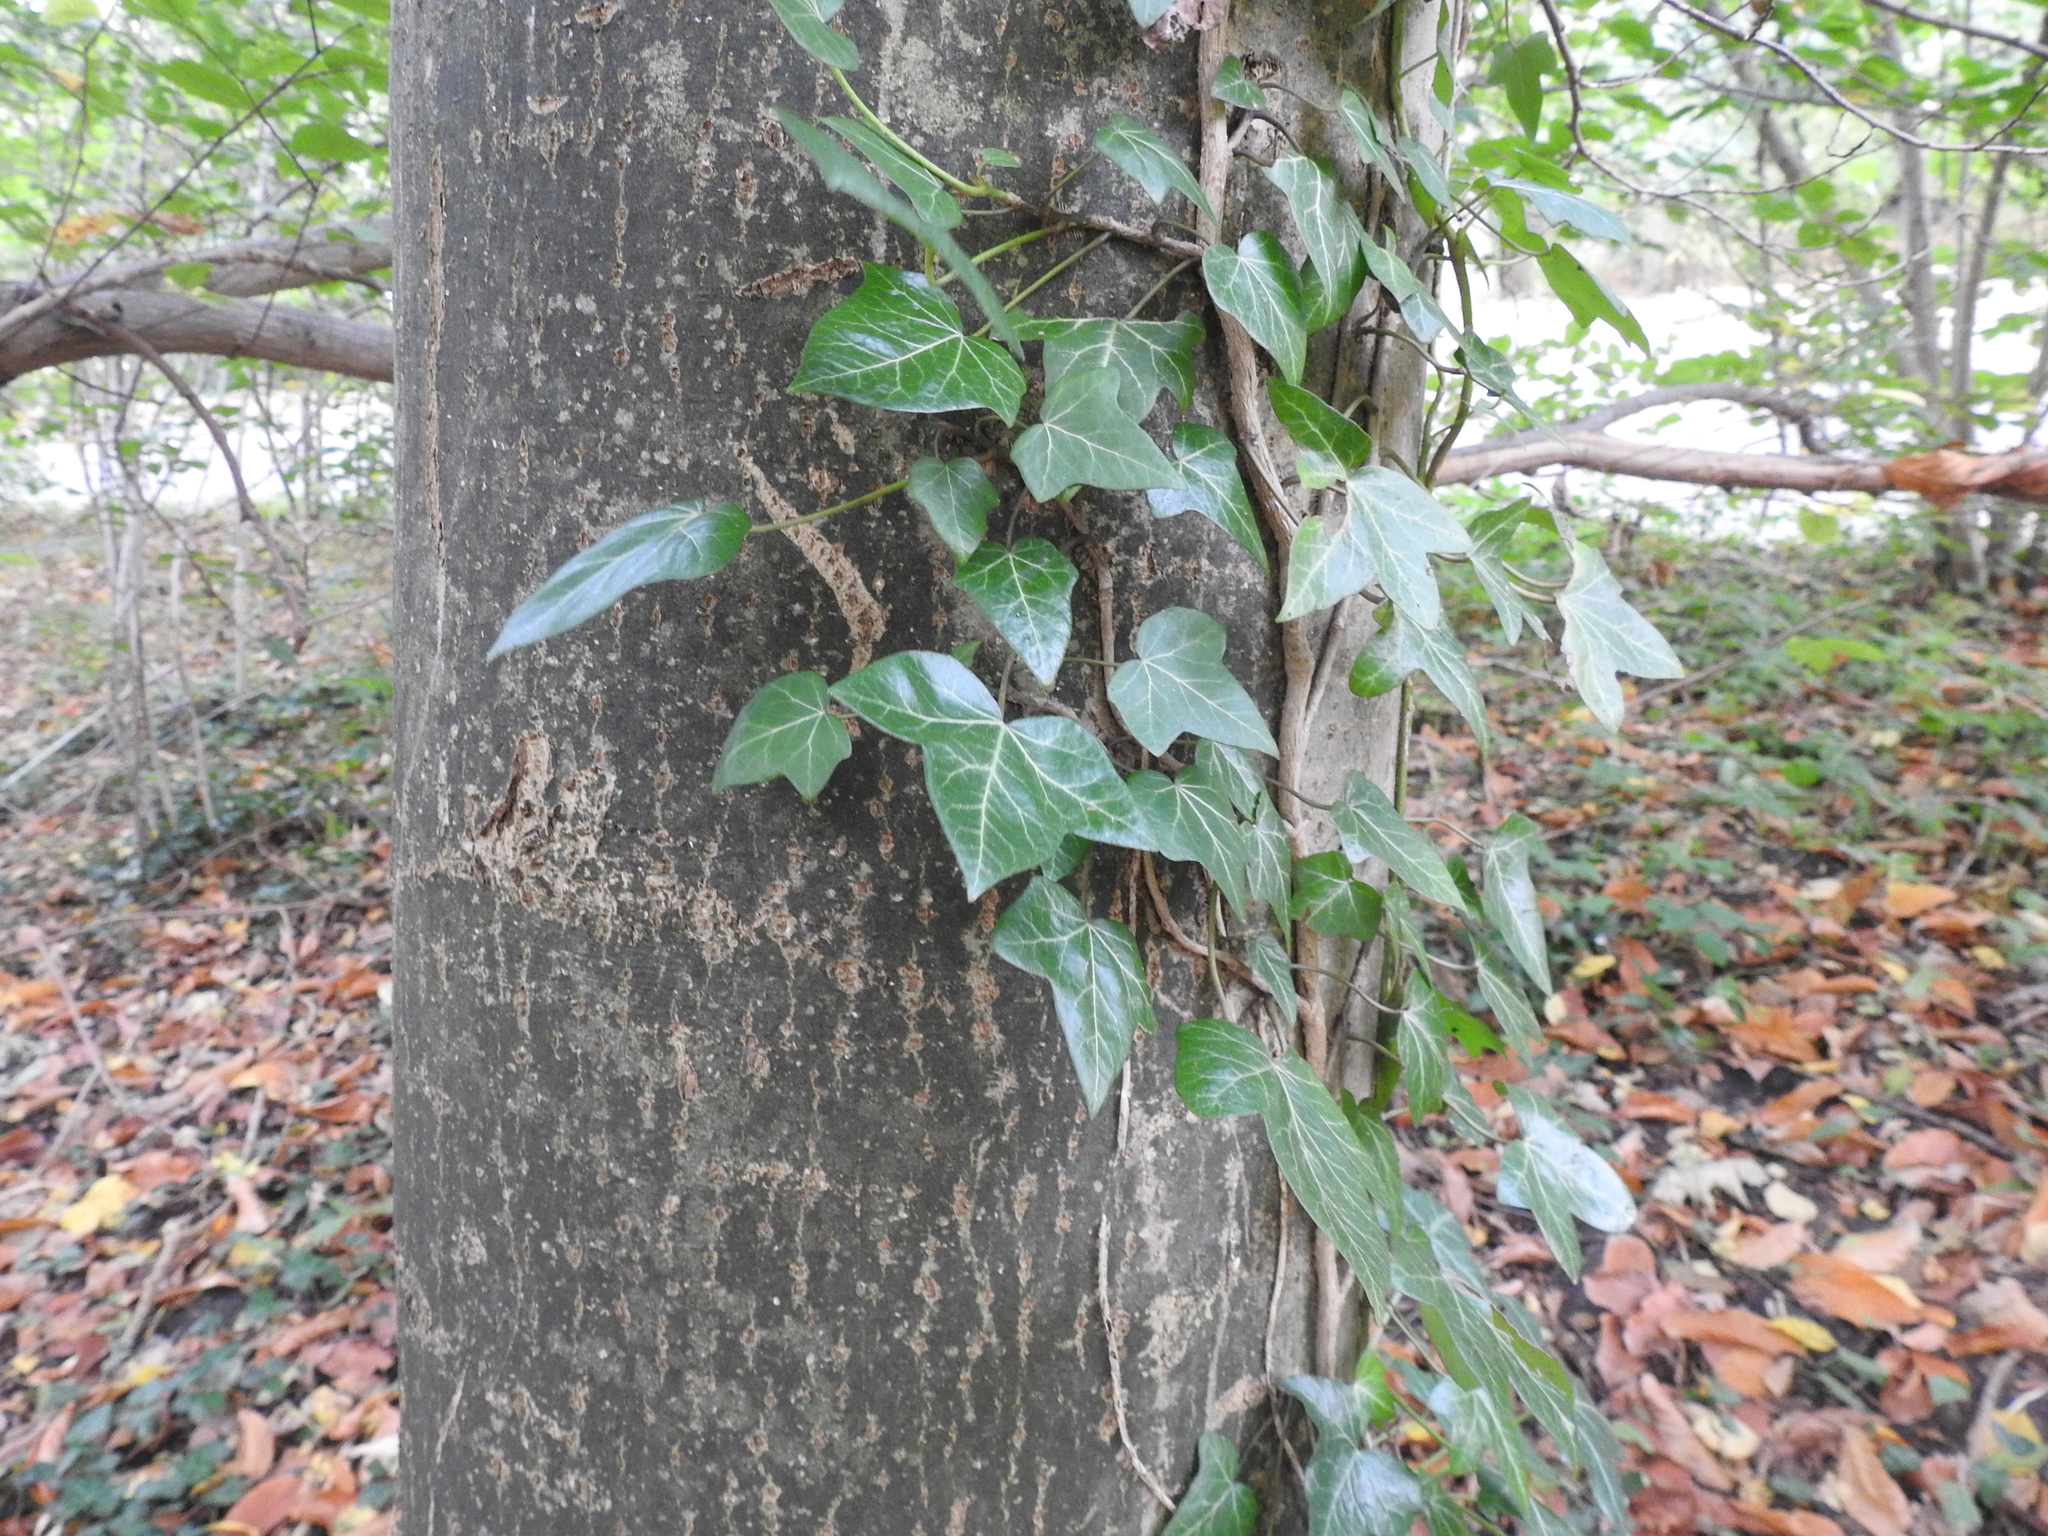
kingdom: Plantae
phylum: Tracheophyta
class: Magnoliopsida
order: Apiales
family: Araliaceae
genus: Hedera
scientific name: Hedera helix
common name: Ivy
